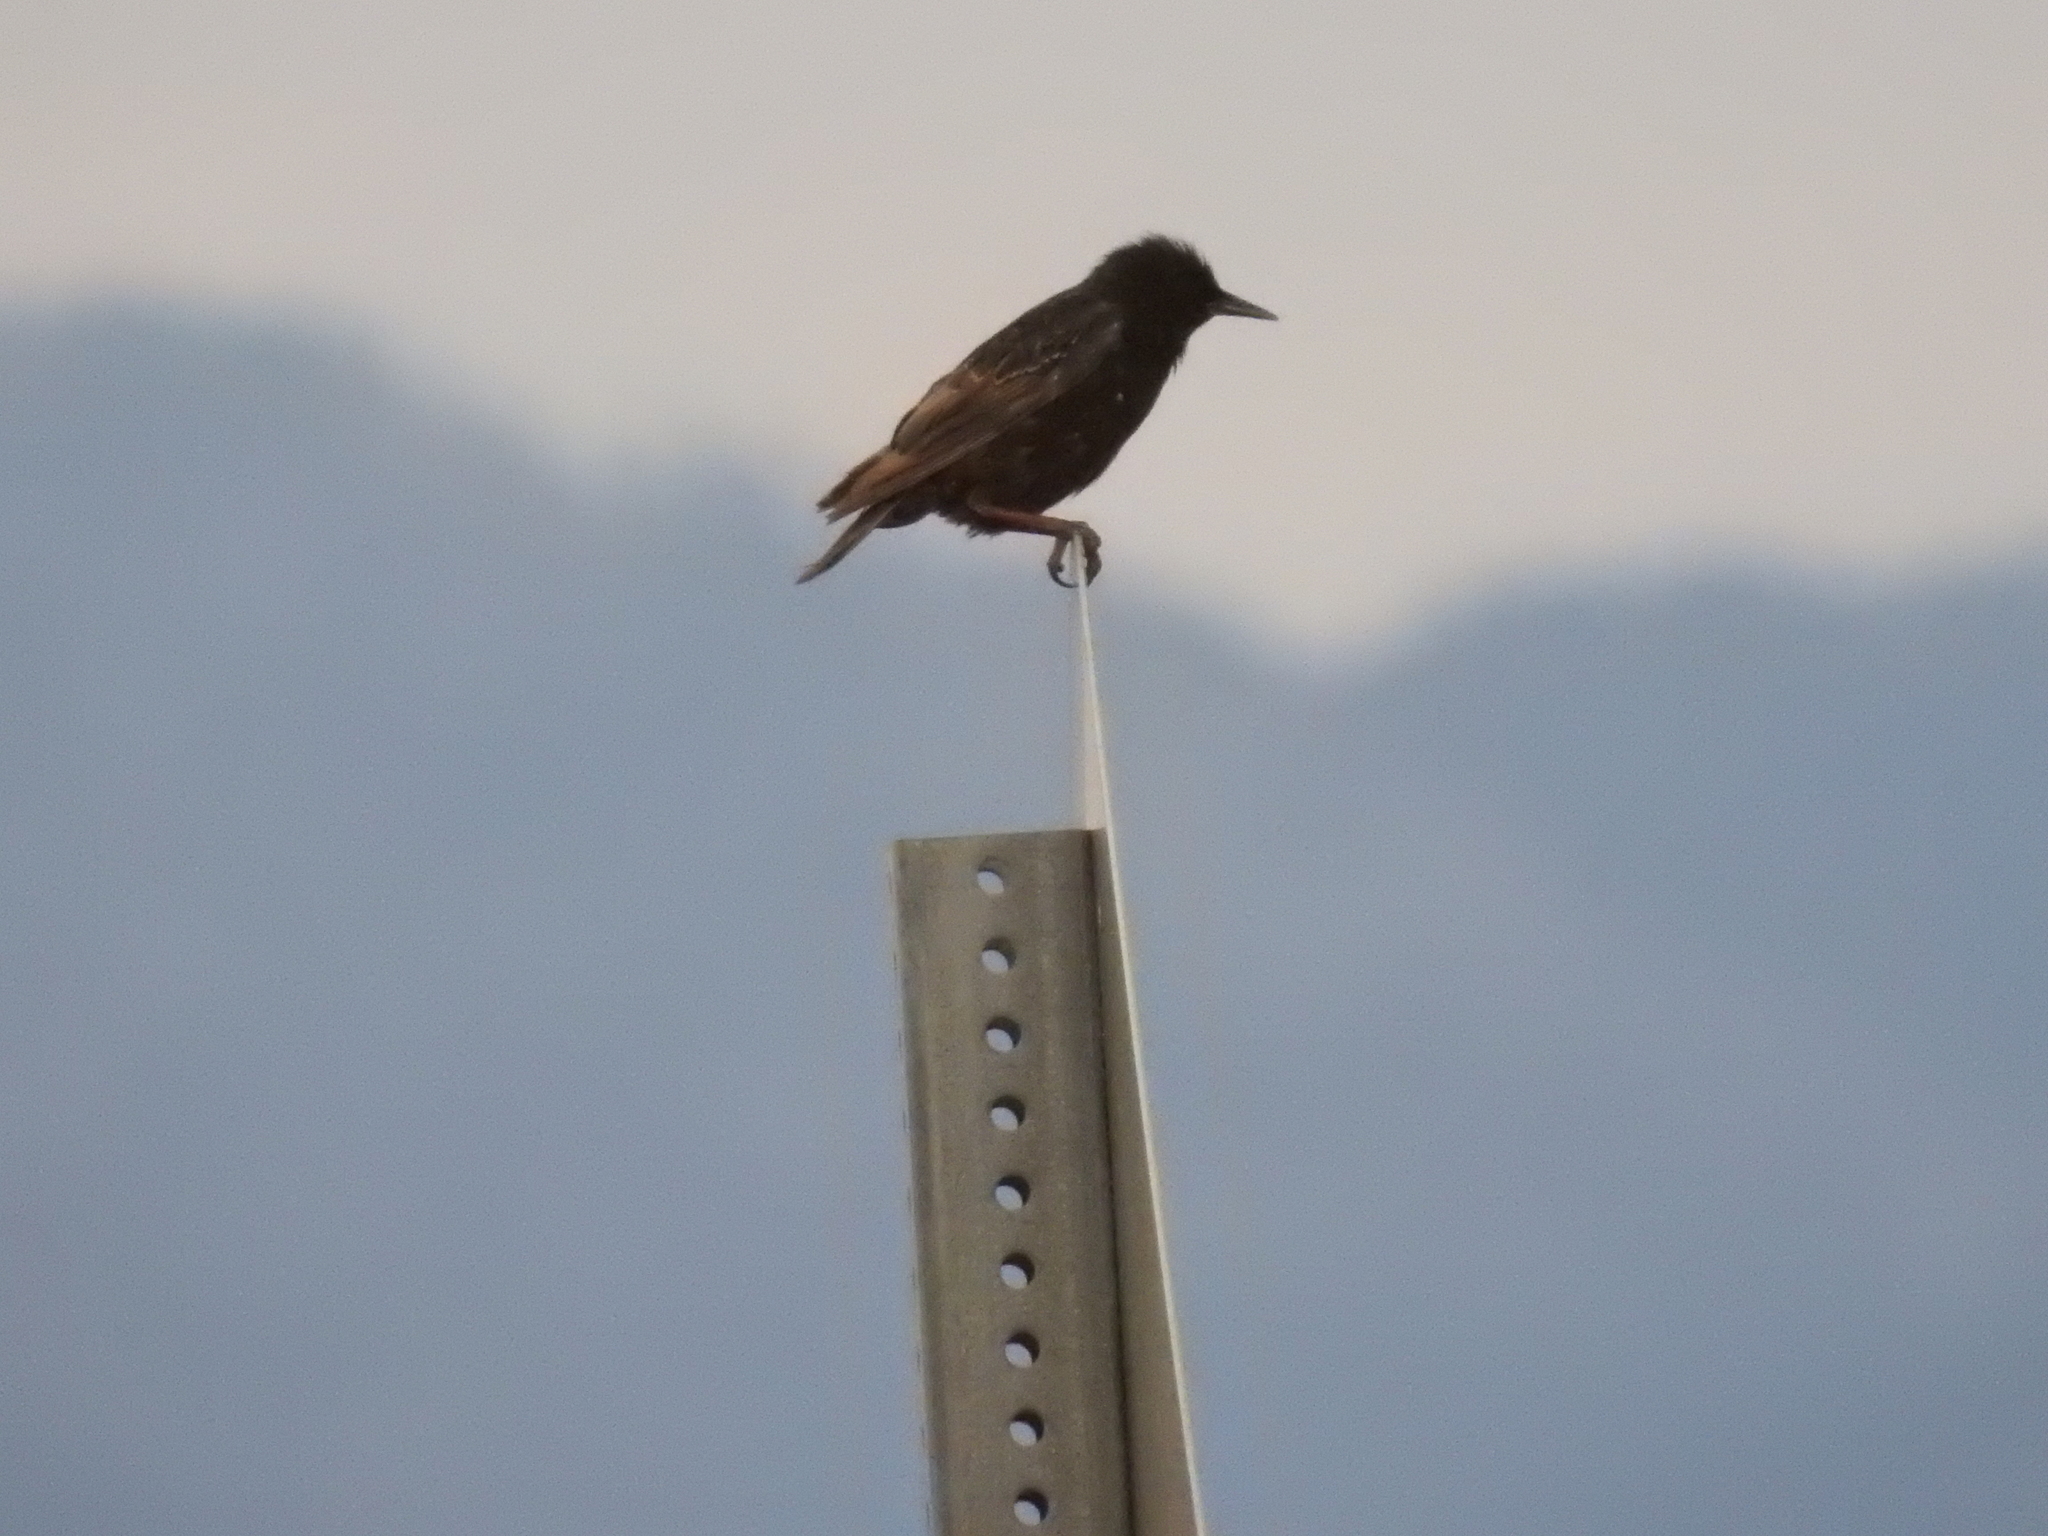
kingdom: Animalia
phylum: Chordata
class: Aves
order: Passeriformes
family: Sturnidae
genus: Sturnus
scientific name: Sturnus vulgaris
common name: Common starling
